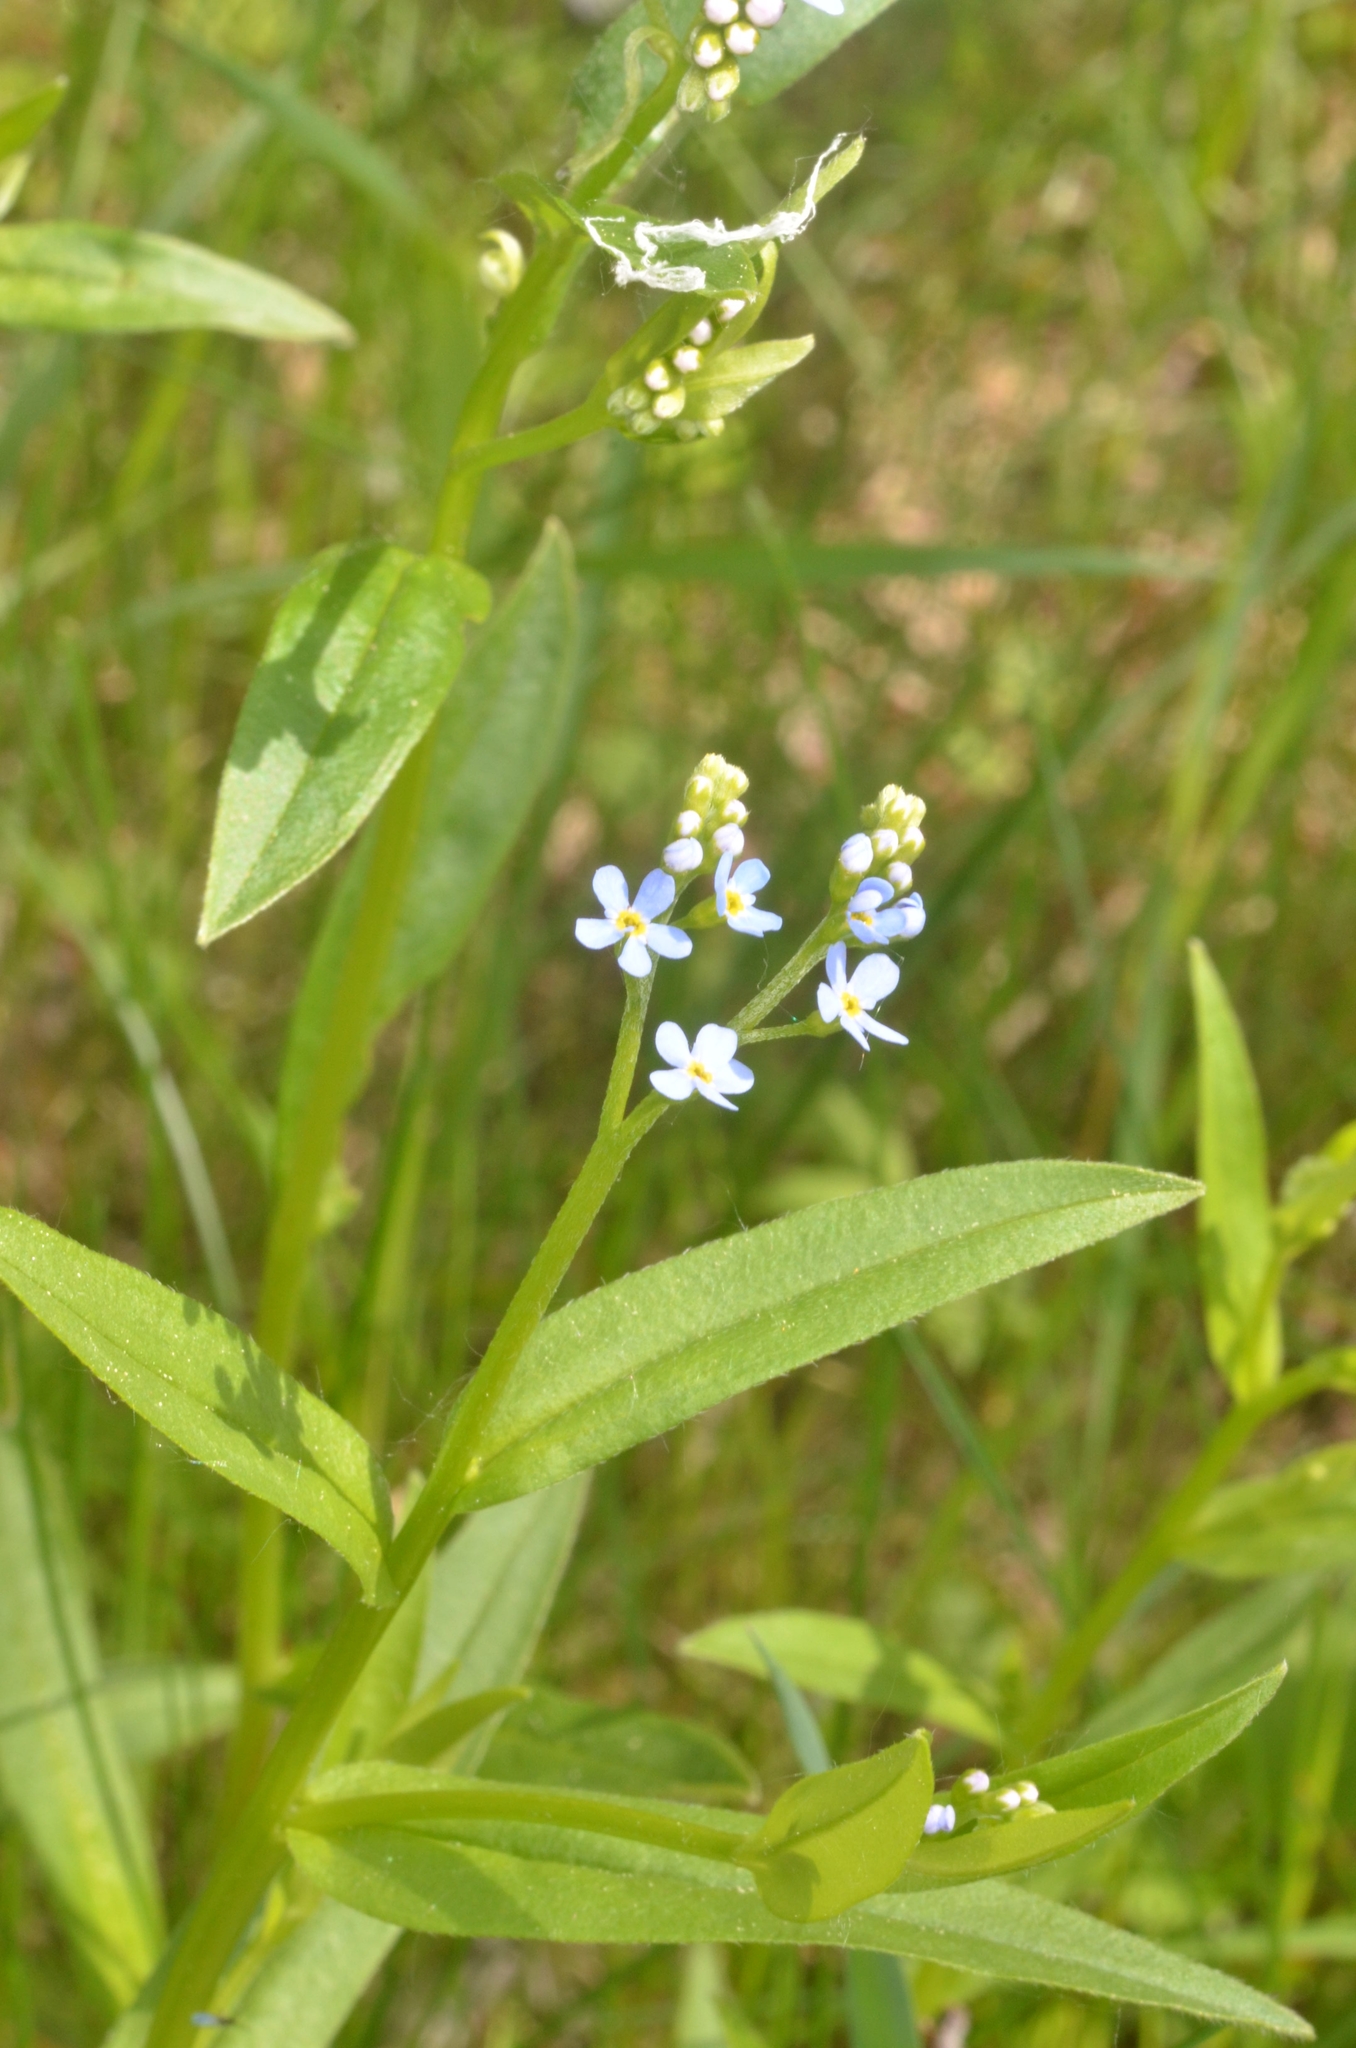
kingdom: Plantae
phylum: Tracheophyta
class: Magnoliopsida
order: Boraginales
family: Boraginaceae
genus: Myosotis
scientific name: Myosotis scorpioides
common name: Water forget-me-not
